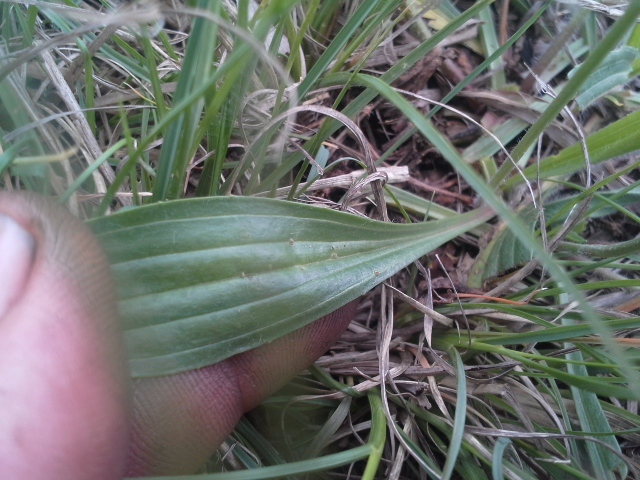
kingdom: Plantae
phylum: Tracheophyta
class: Magnoliopsida
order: Lamiales
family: Plantaginaceae
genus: Plantago
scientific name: Plantago lanceolata
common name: Ribwort plantain
